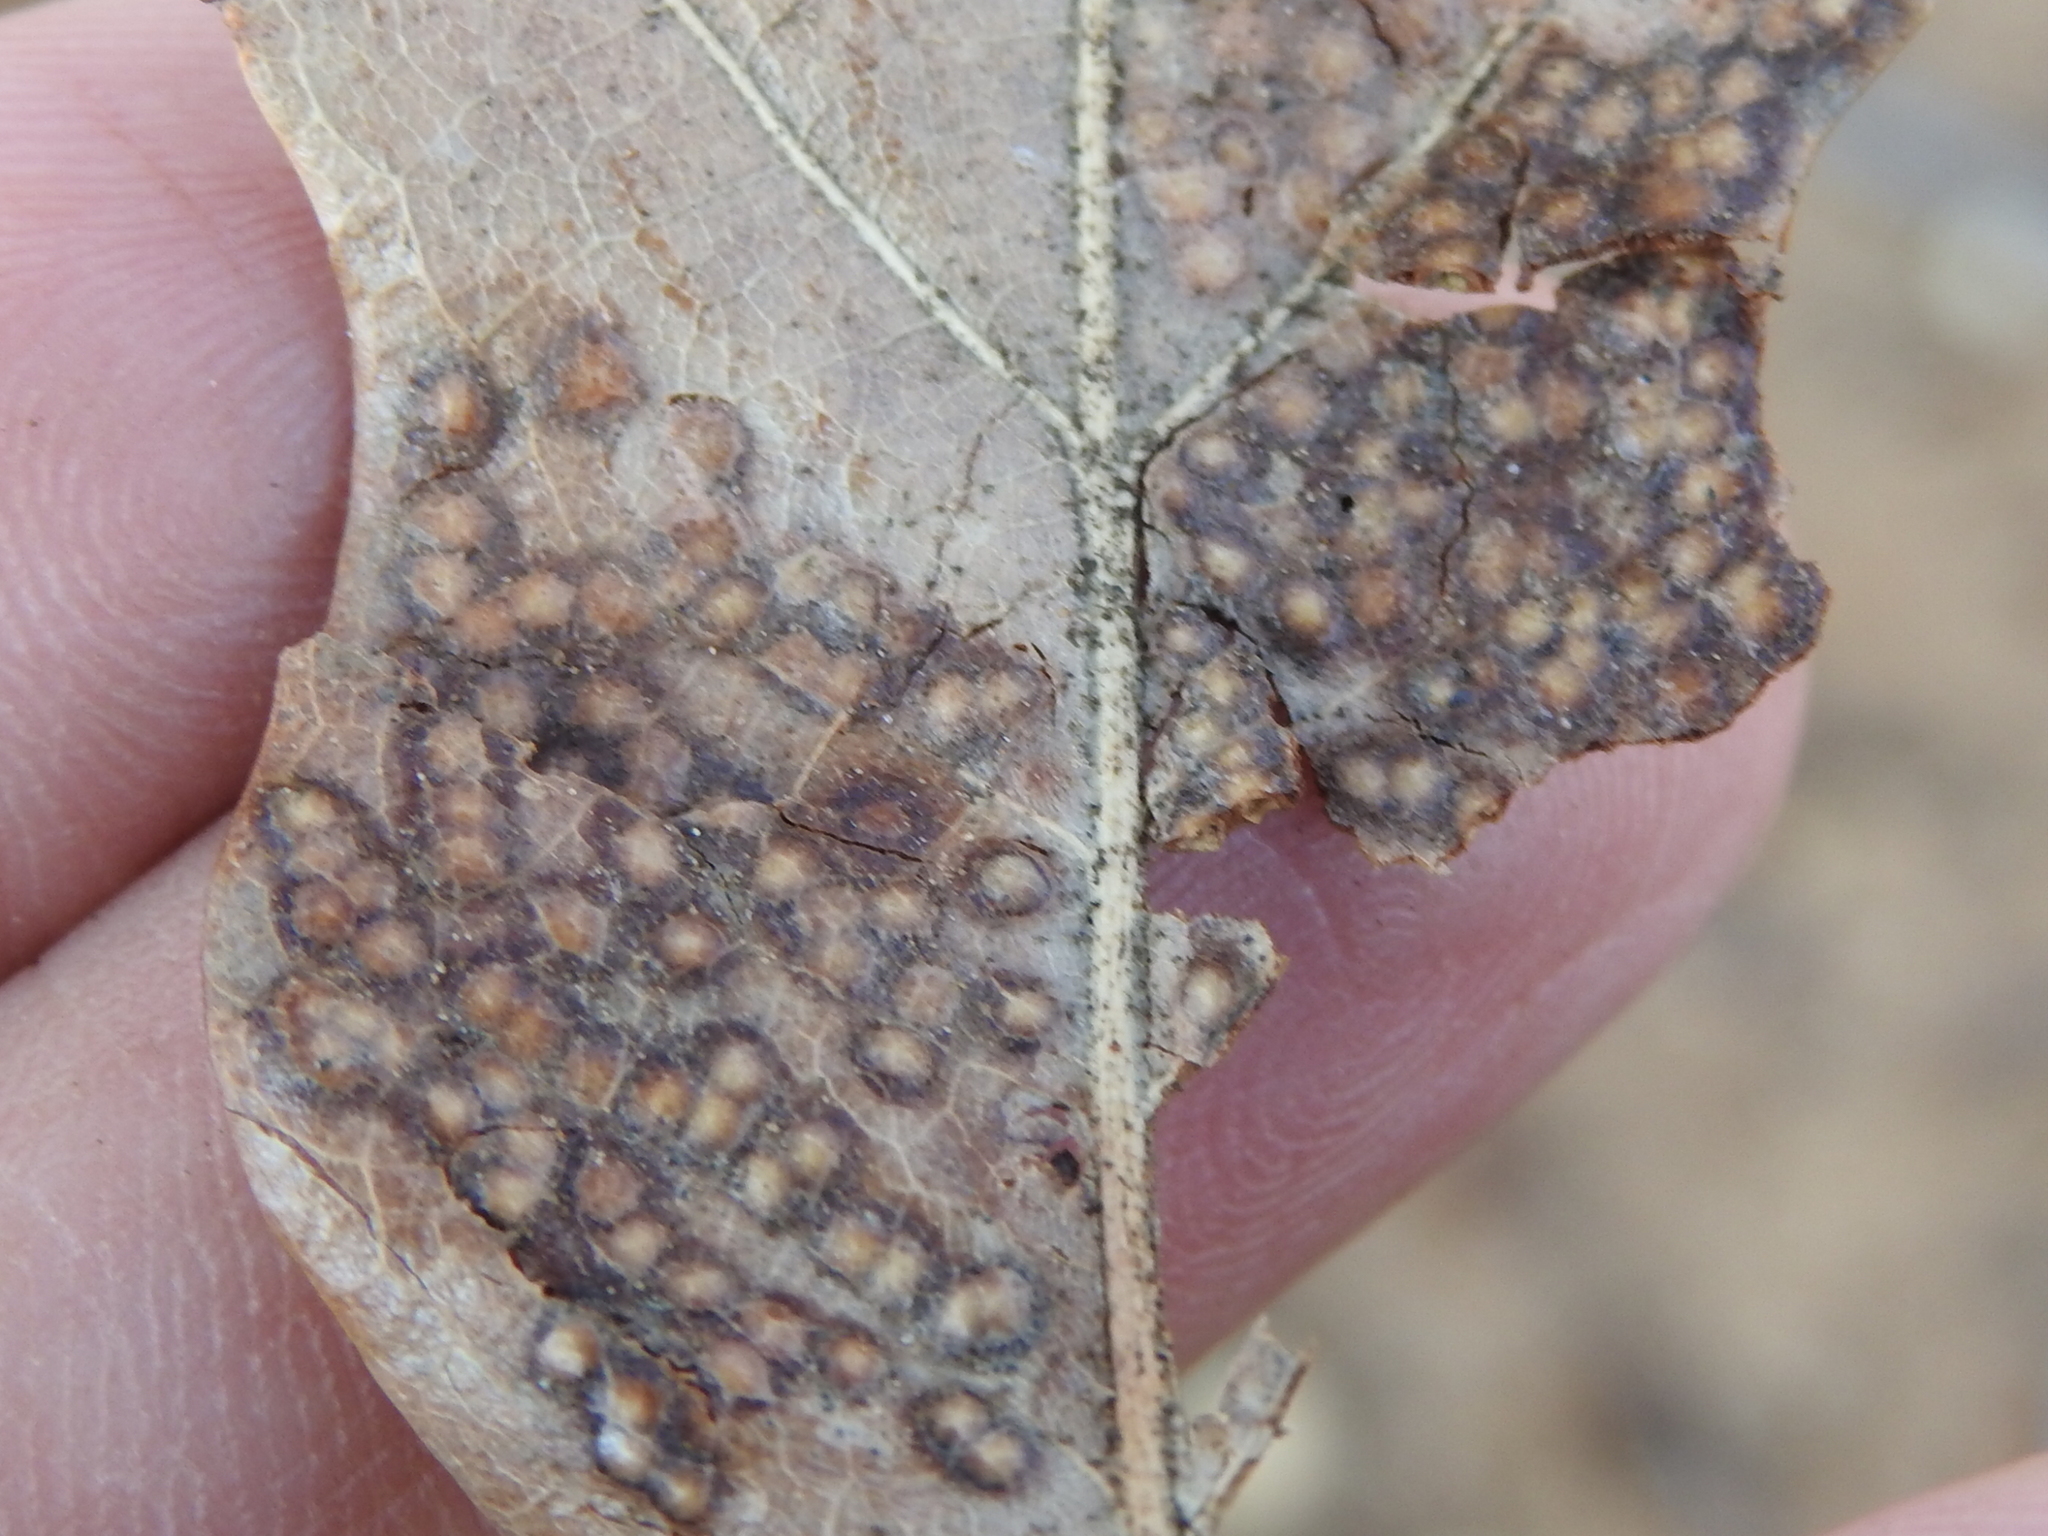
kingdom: Animalia
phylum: Arthropoda
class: Insecta
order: Hymenoptera
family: Cynipidae
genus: Neuroterus
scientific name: Neuroterus niger
